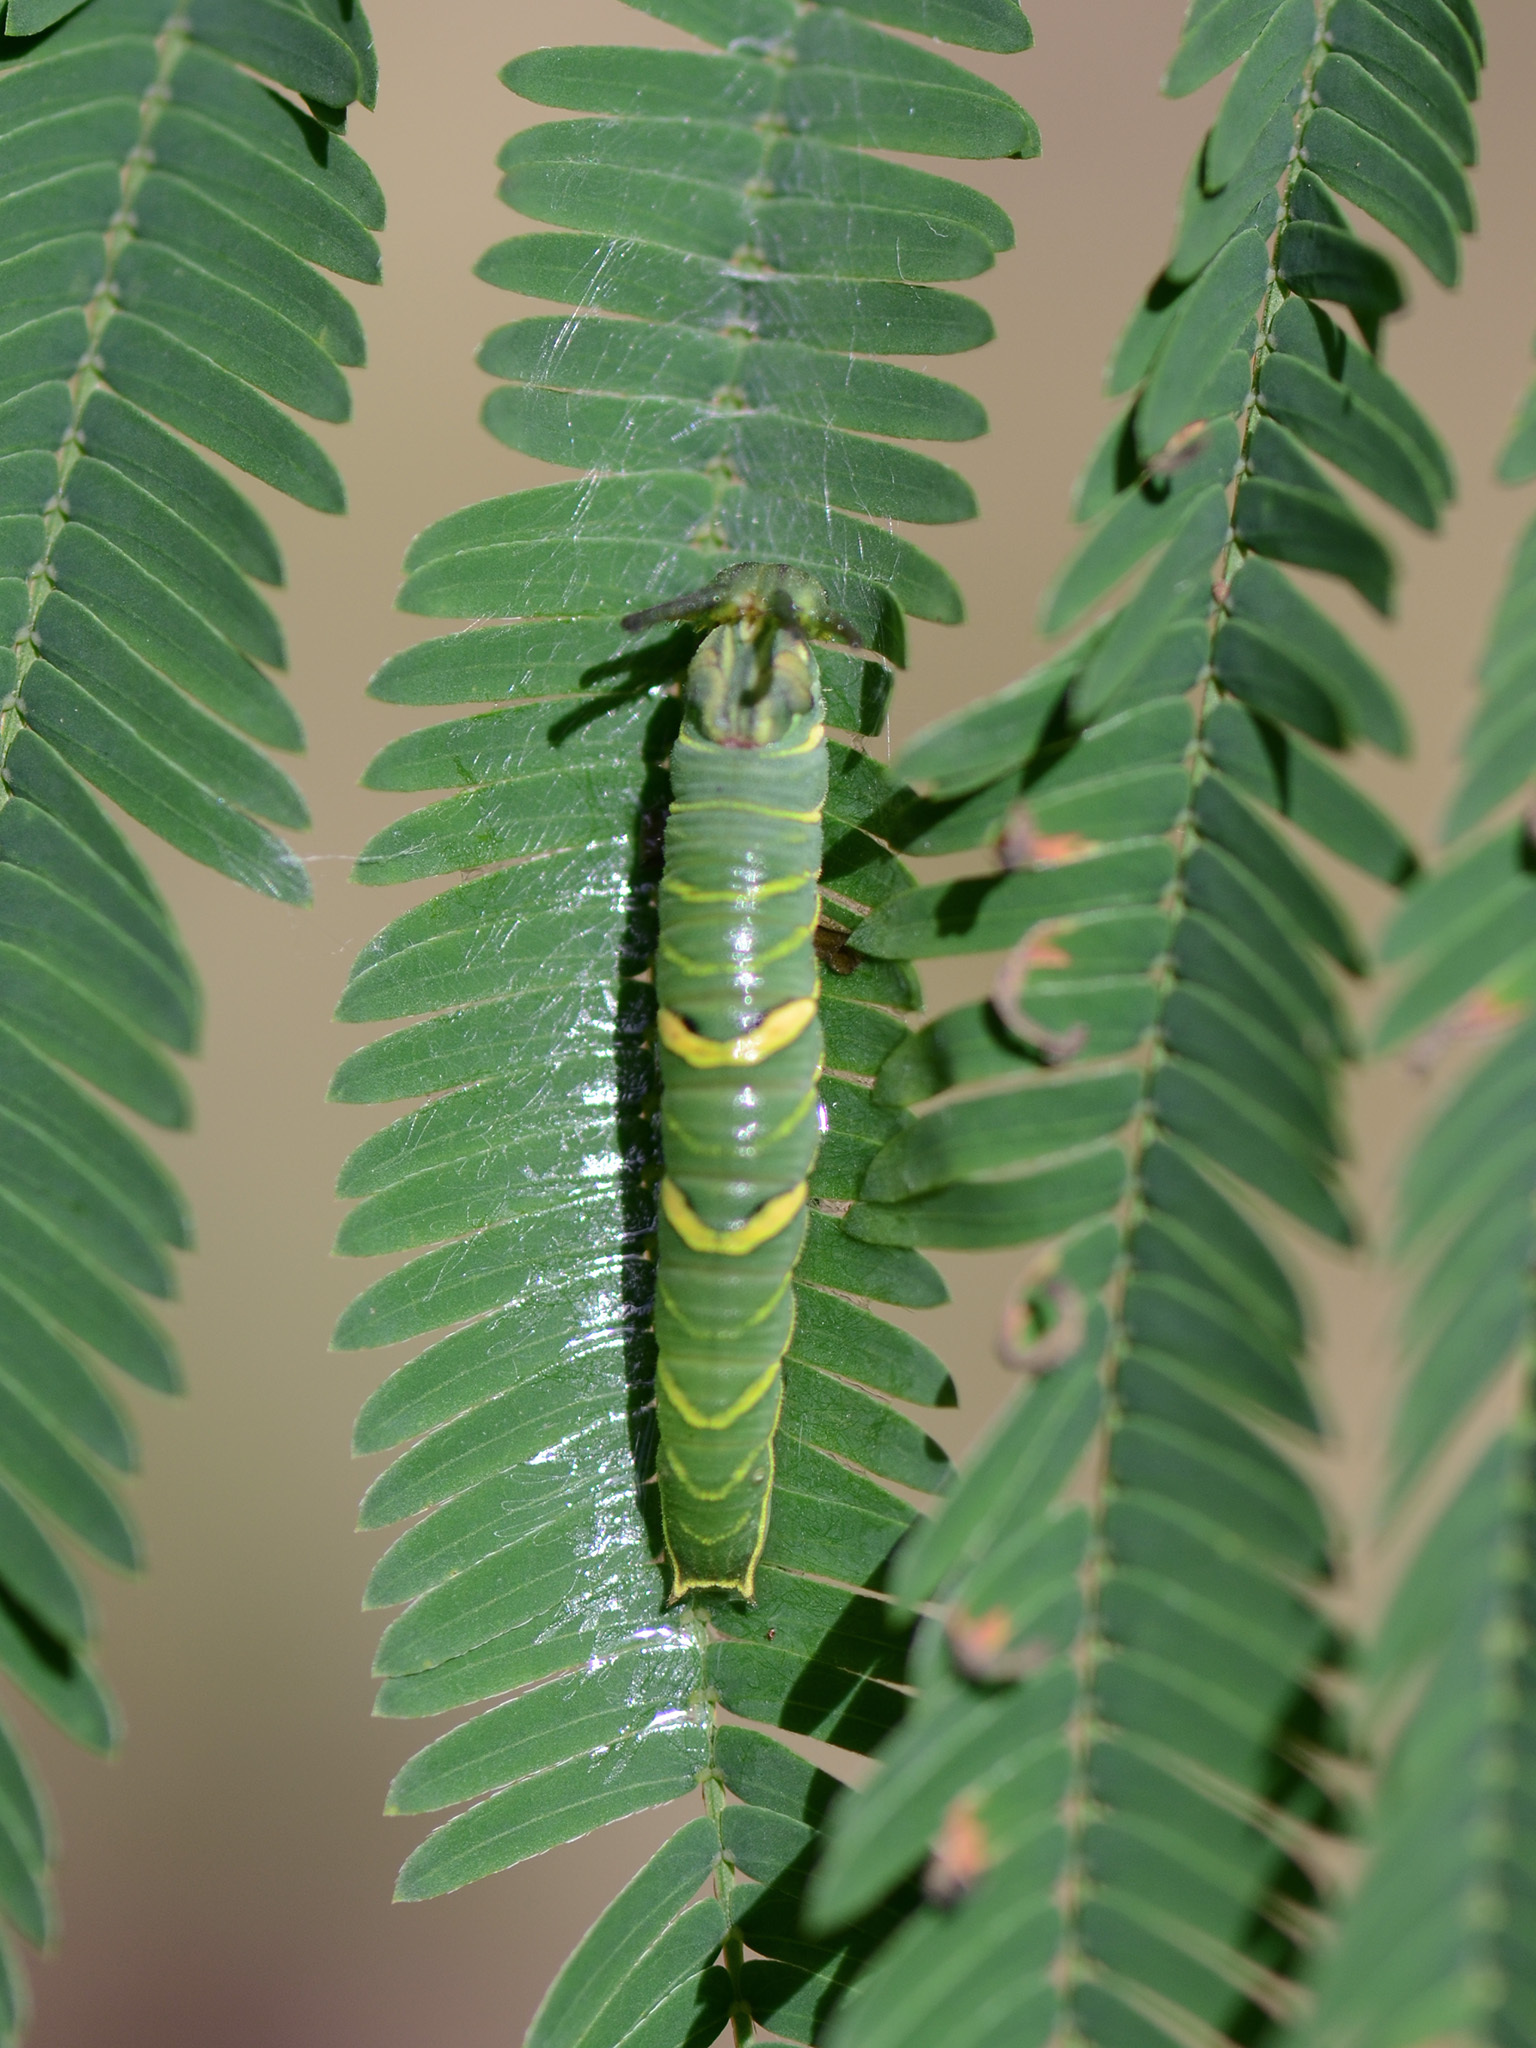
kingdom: Animalia
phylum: Arthropoda
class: Insecta
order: Lepidoptera
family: Nymphalidae
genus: Polyura
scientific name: Polyura athamas
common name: Common nawab
